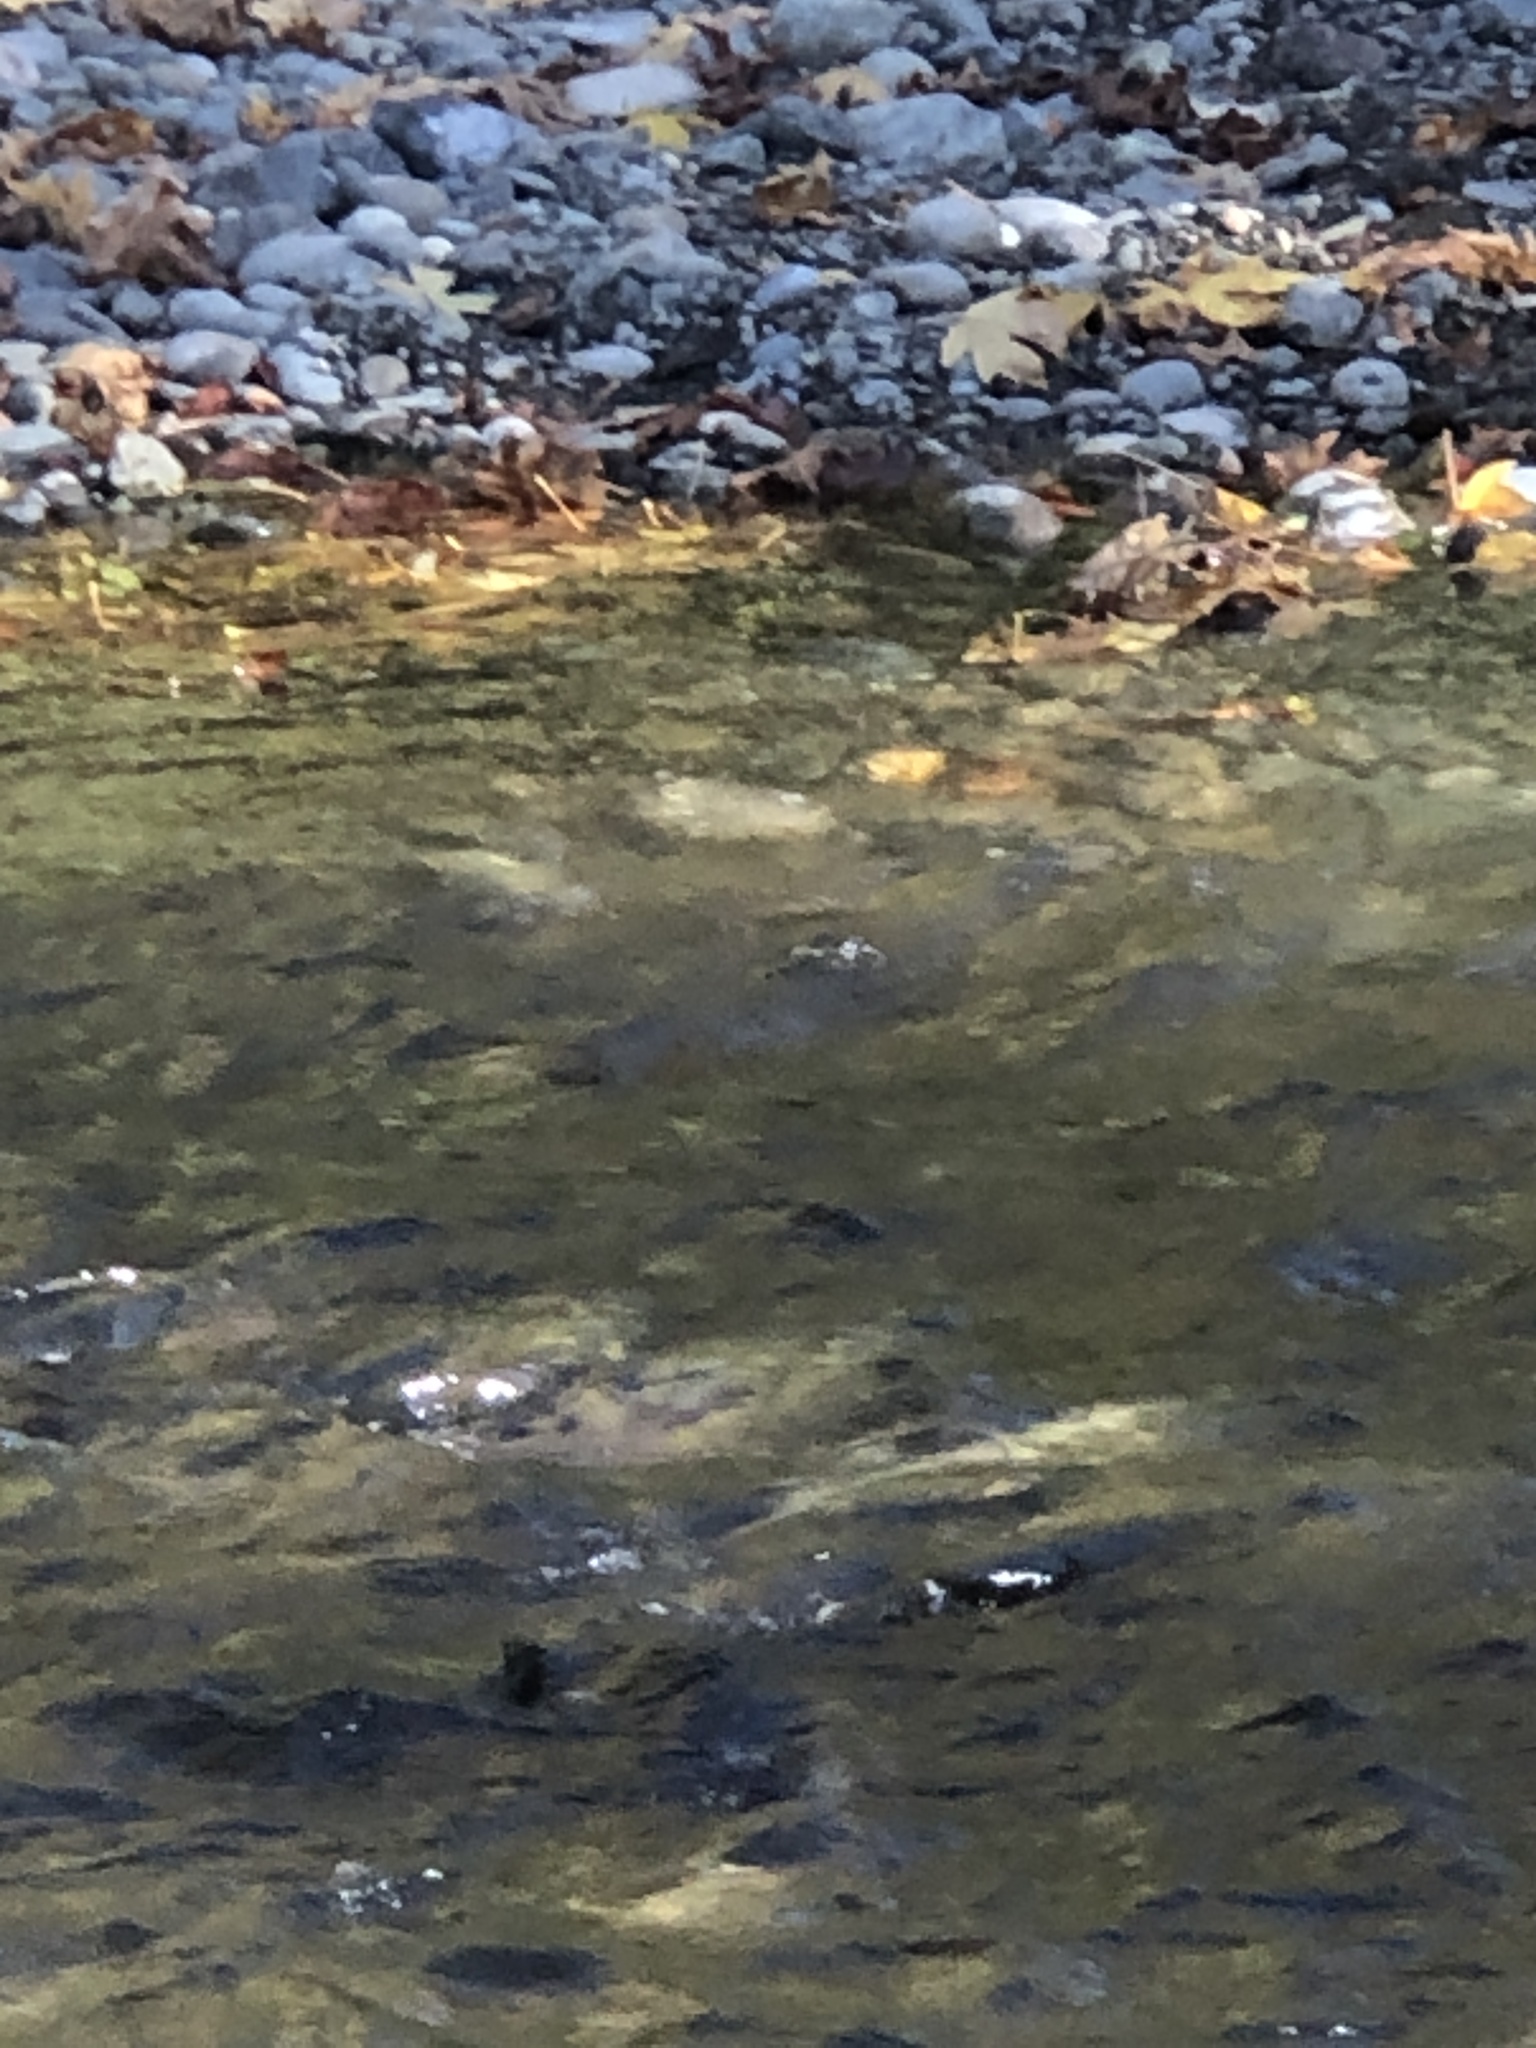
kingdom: Animalia
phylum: Chordata
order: Salmoniformes
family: Salmonidae
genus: Oncorhynchus
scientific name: Oncorhynchus keta
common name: Chum salmon
